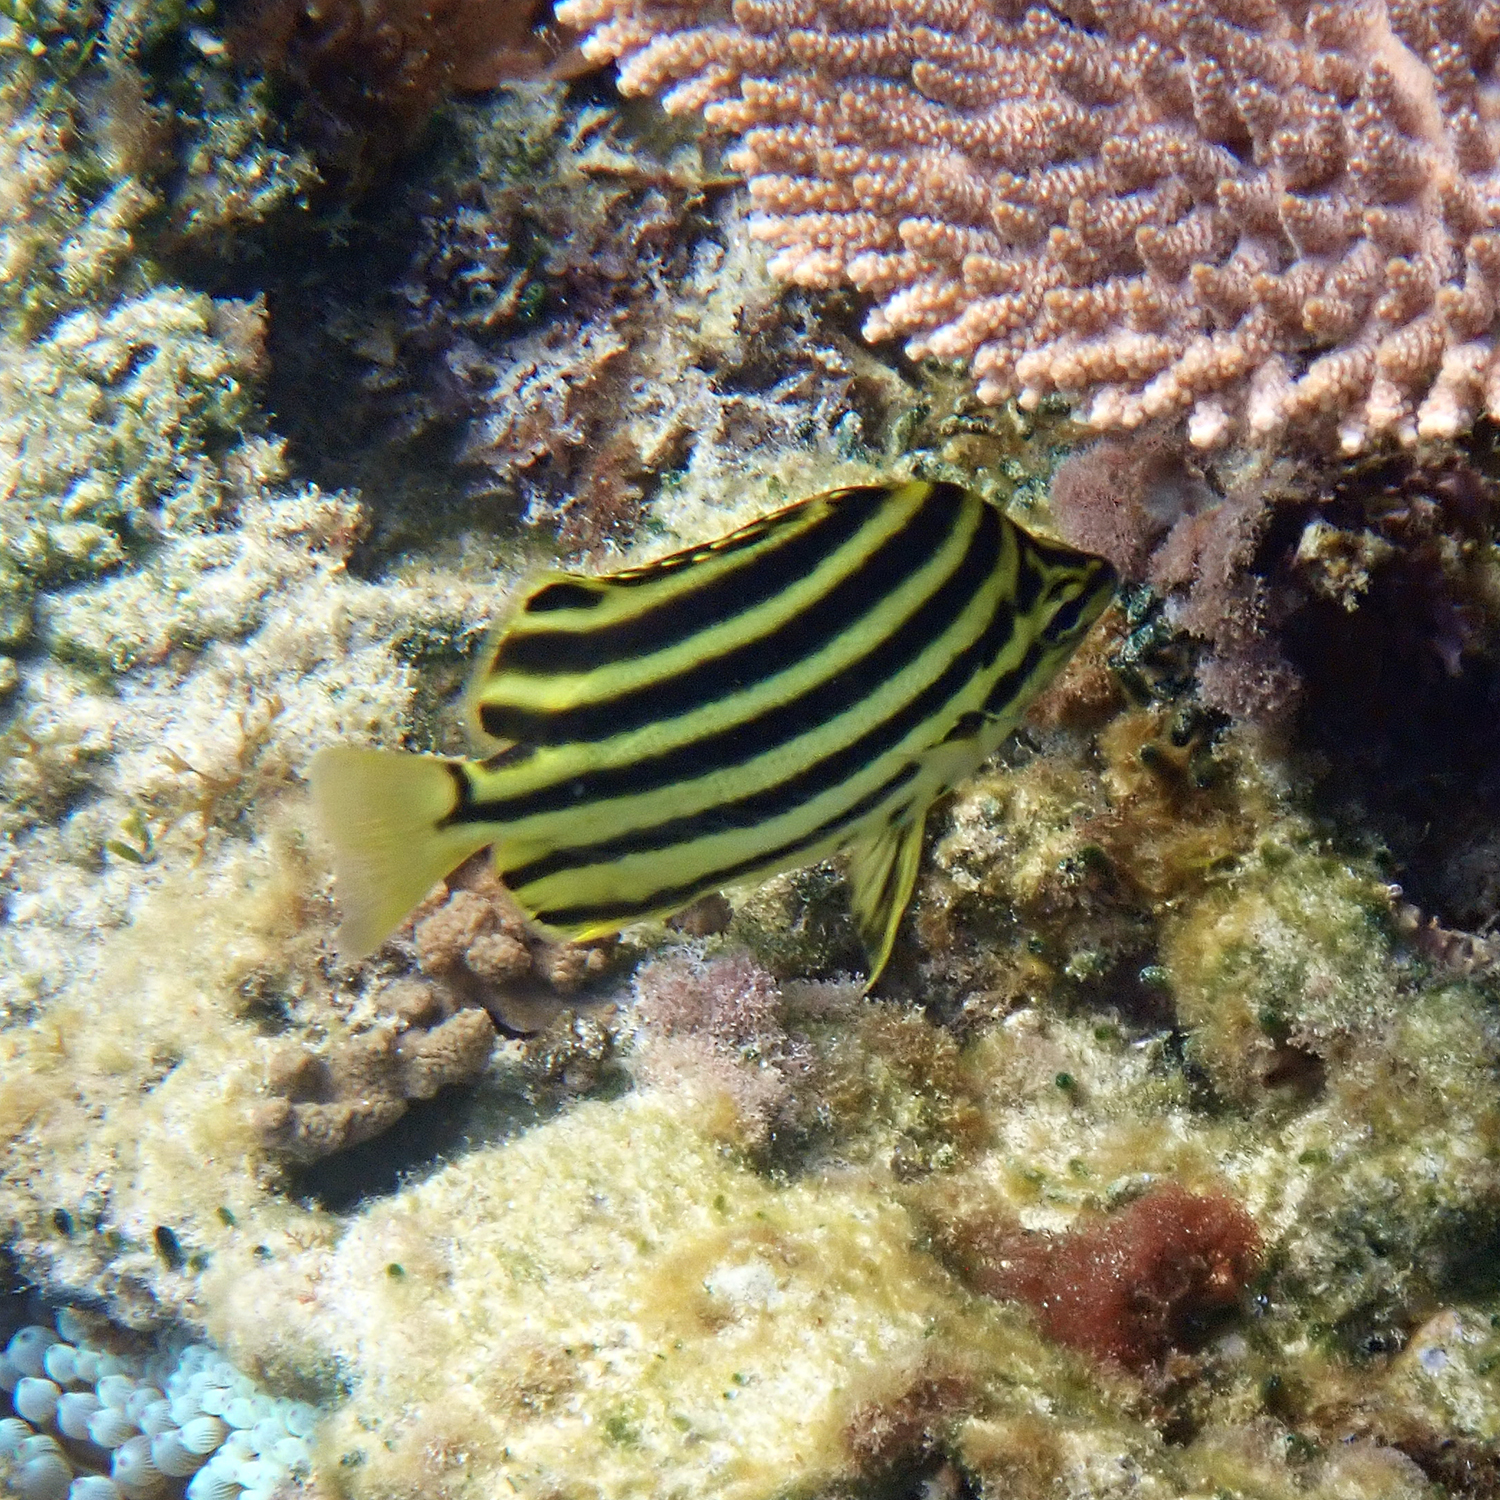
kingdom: Animalia
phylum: Chordata
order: Perciformes
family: Kyphosidae
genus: Microcanthus
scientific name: Microcanthus joyceae
